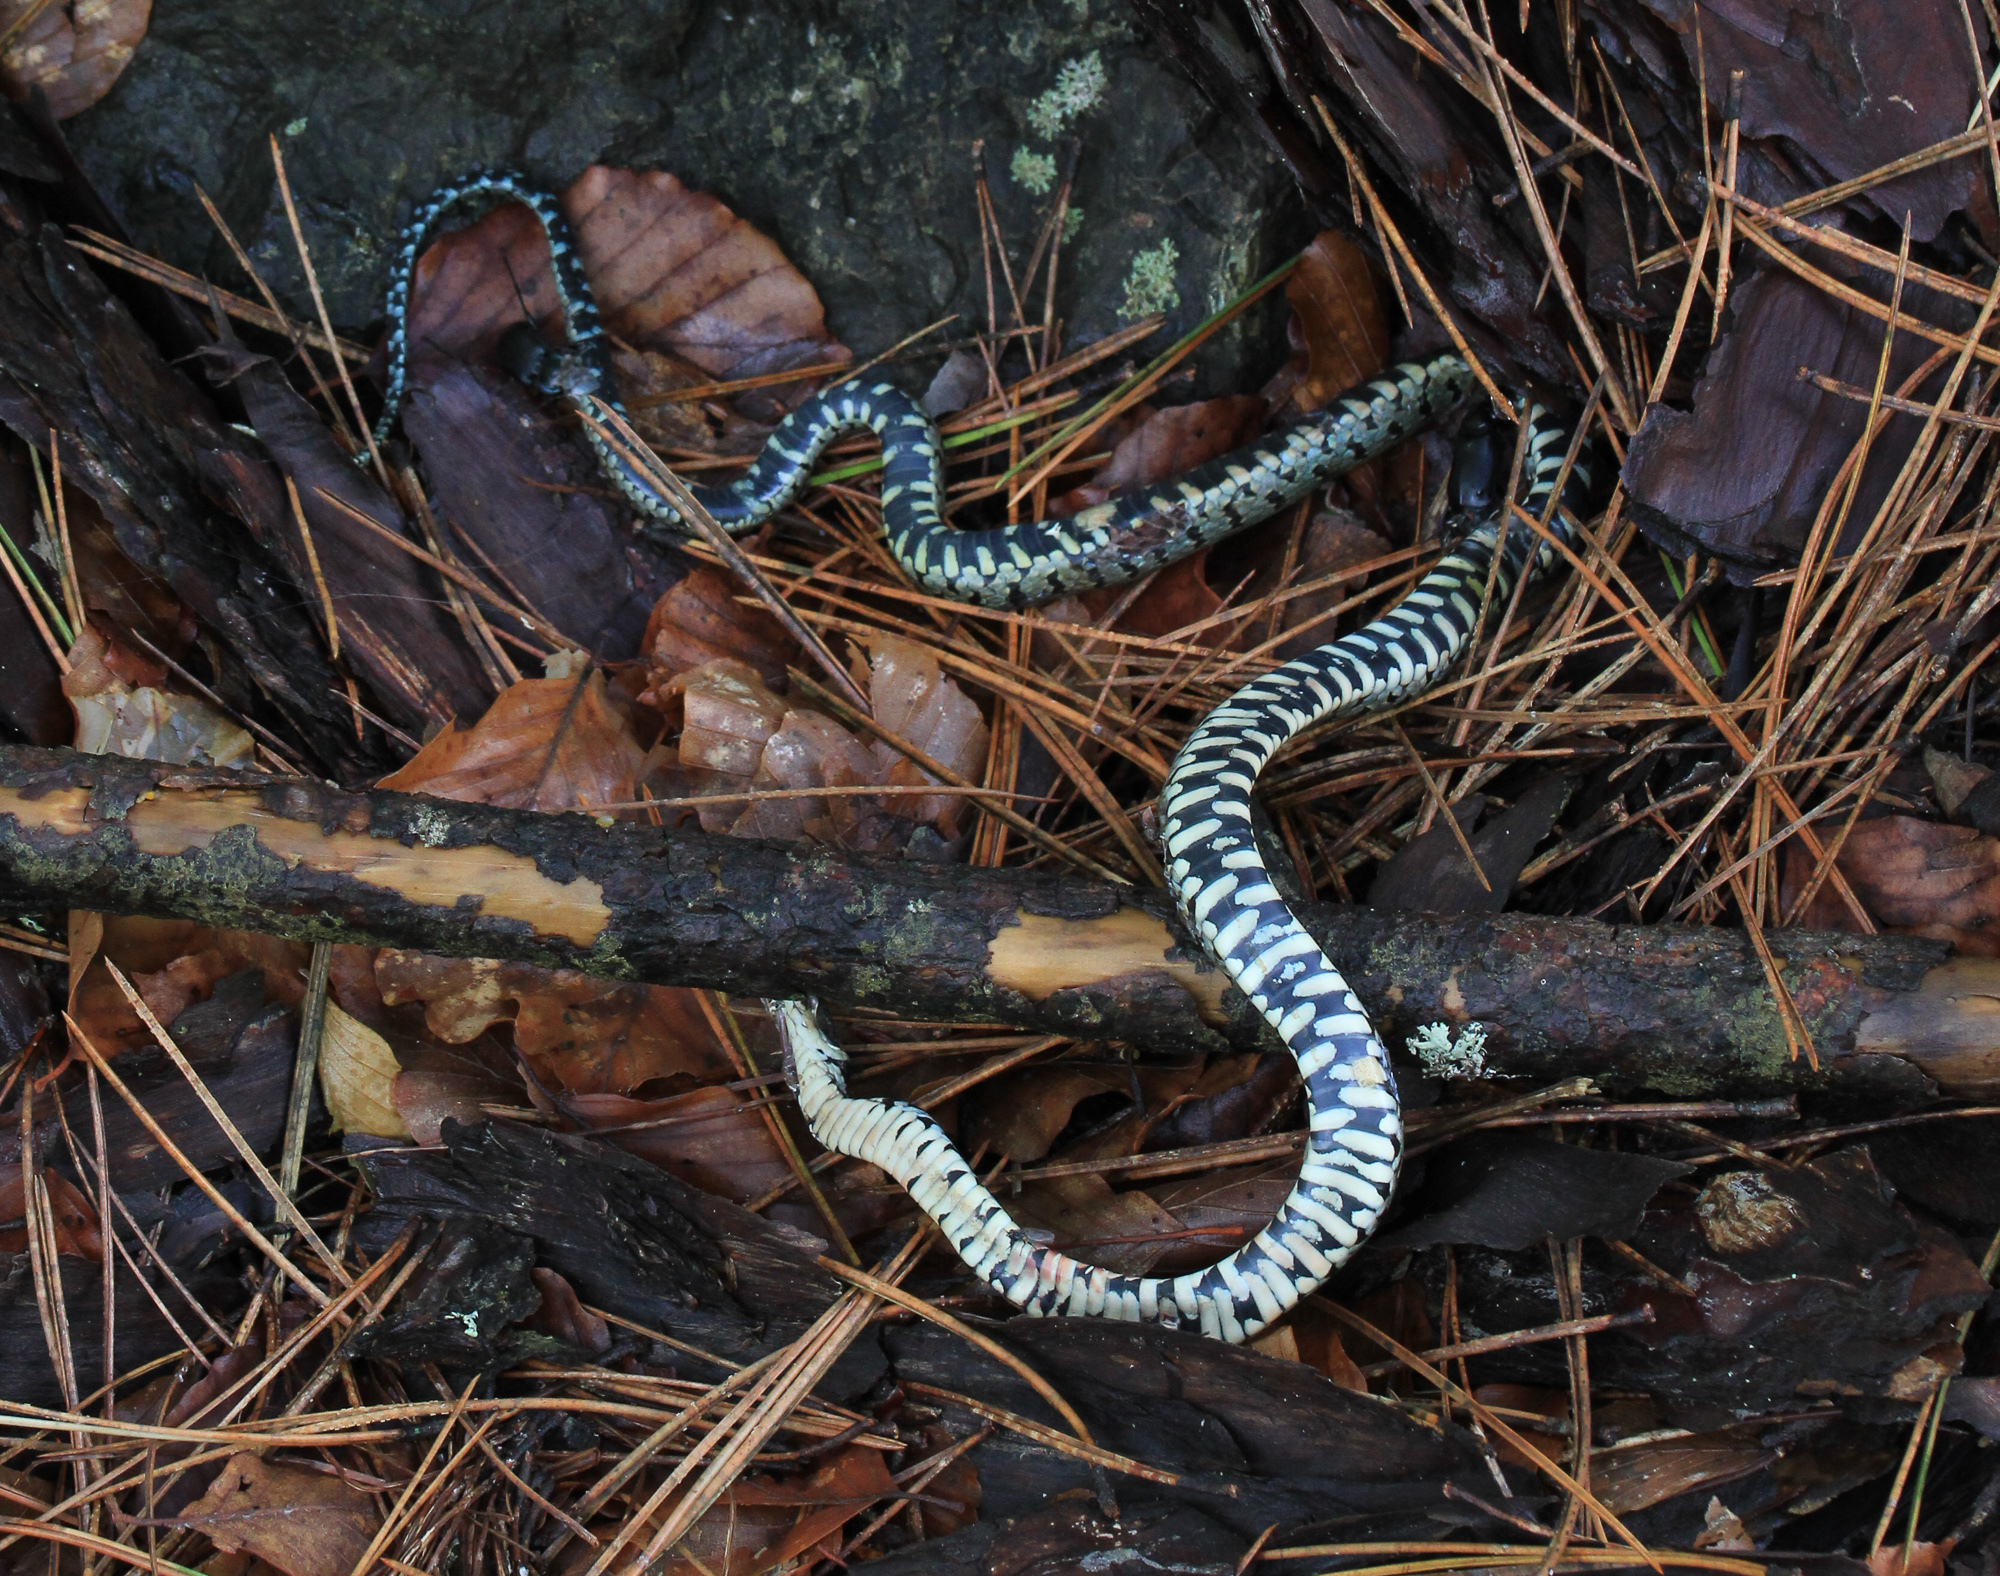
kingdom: Animalia
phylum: Chordata
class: Squamata
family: Colubridae
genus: Natrix
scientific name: Natrix natrix
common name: Grass snake
